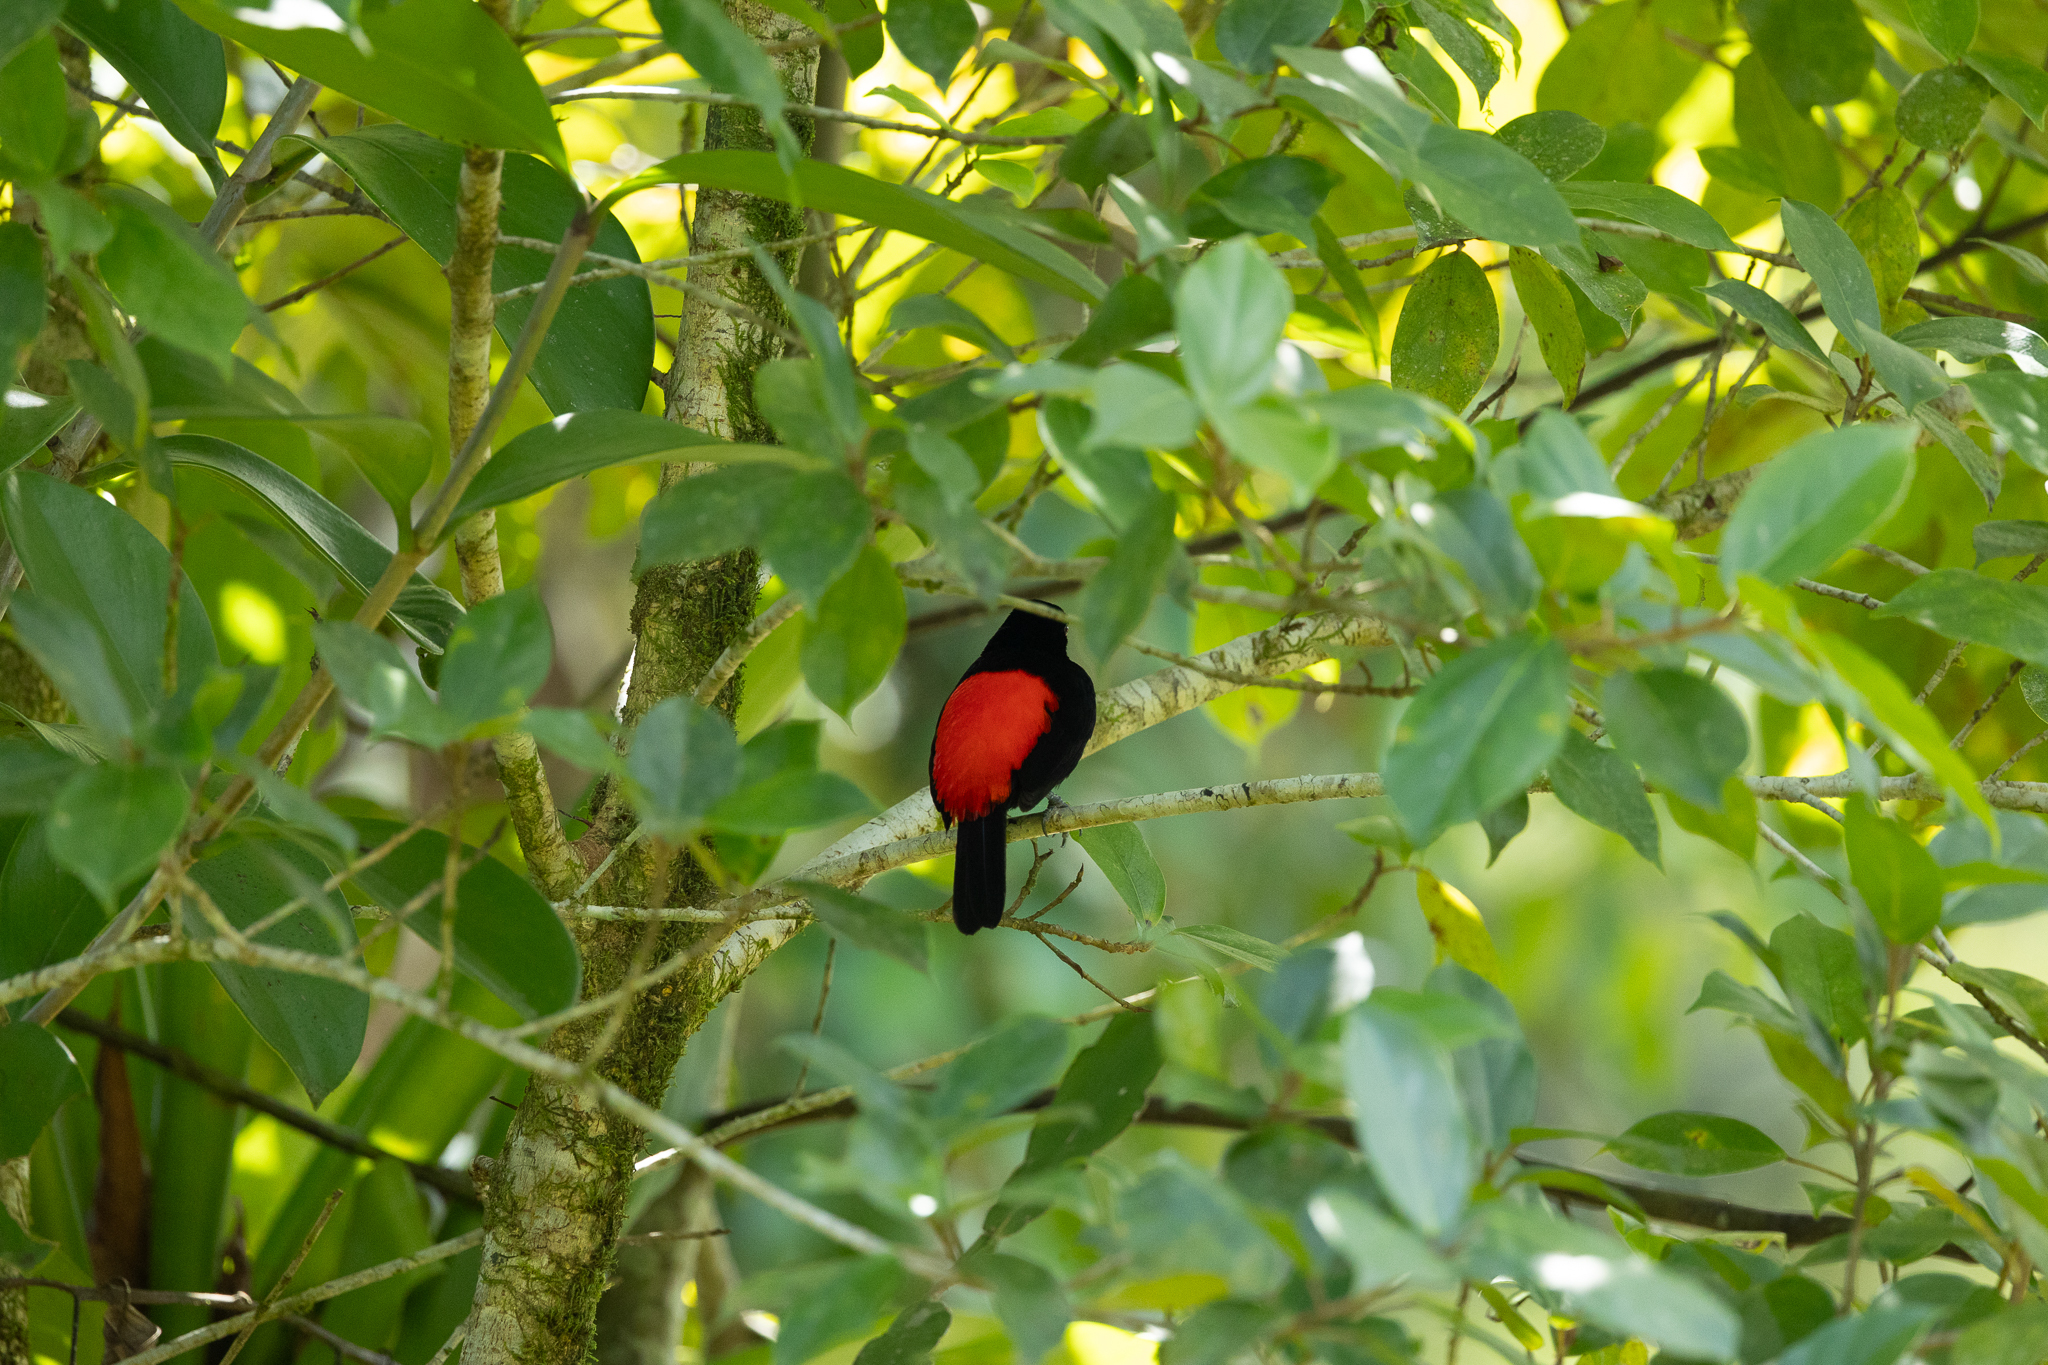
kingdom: Animalia
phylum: Chordata
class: Aves
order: Passeriformes
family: Thraupidae
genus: Ramphocelus
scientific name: Ramphocelus passerinii
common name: Passerini's tanager
